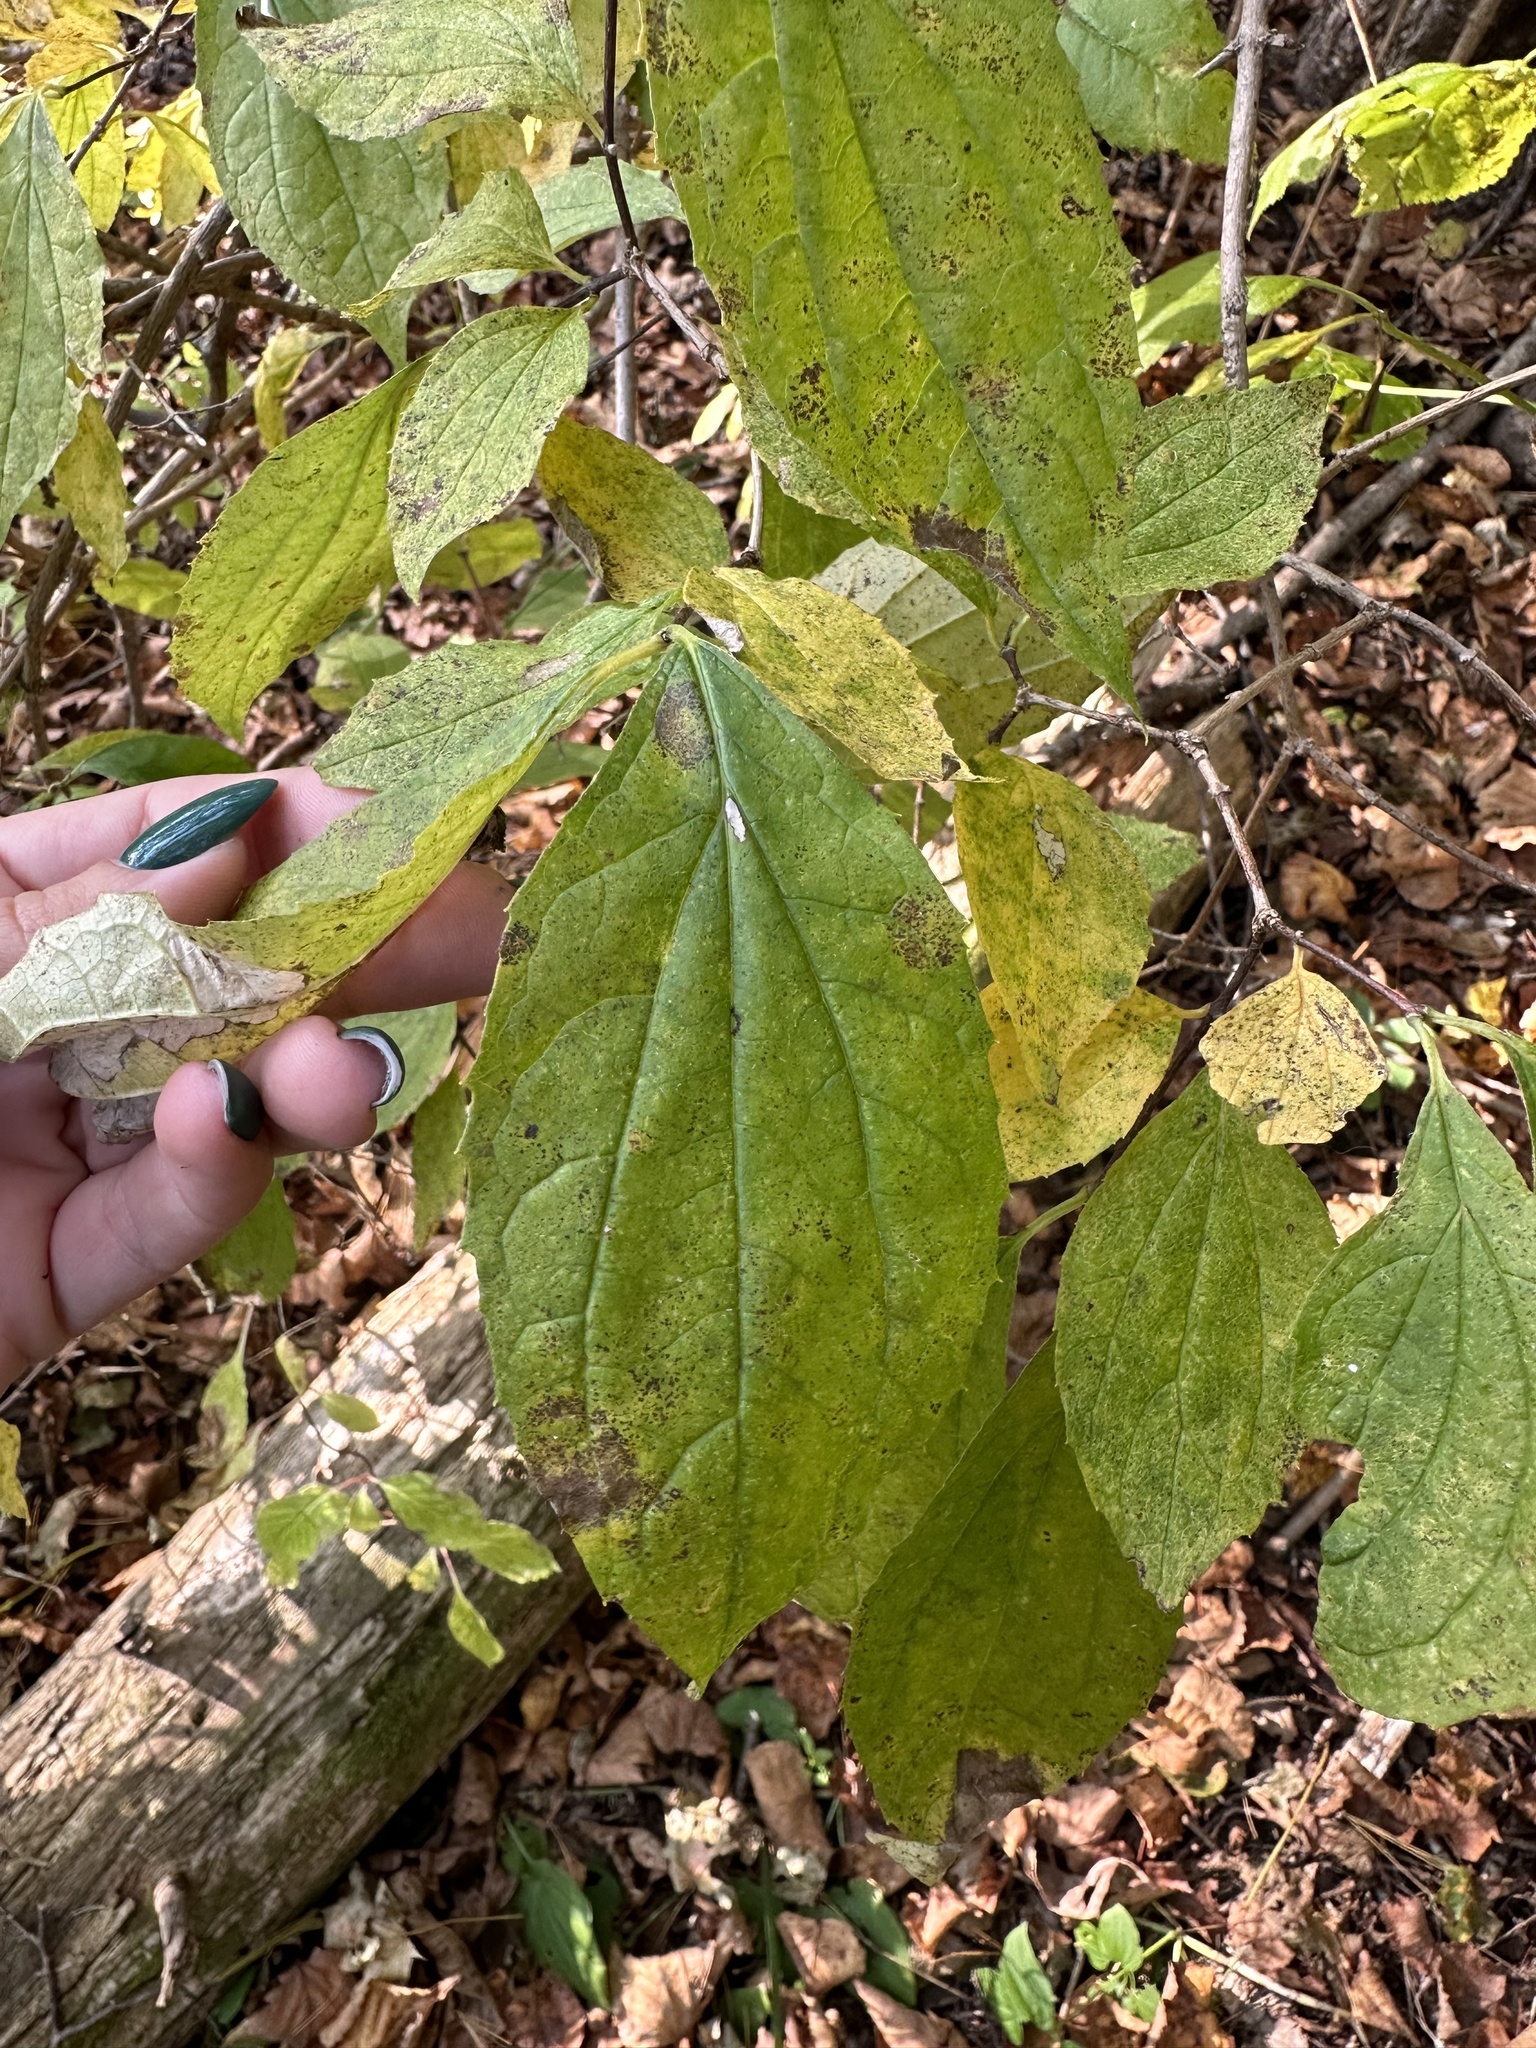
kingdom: Plantae
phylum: Tracheophyta
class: Magnoliopsida
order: Cornales
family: Hydrangeaceae
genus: Philadelphus
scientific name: Philadelphus tenuifolius
